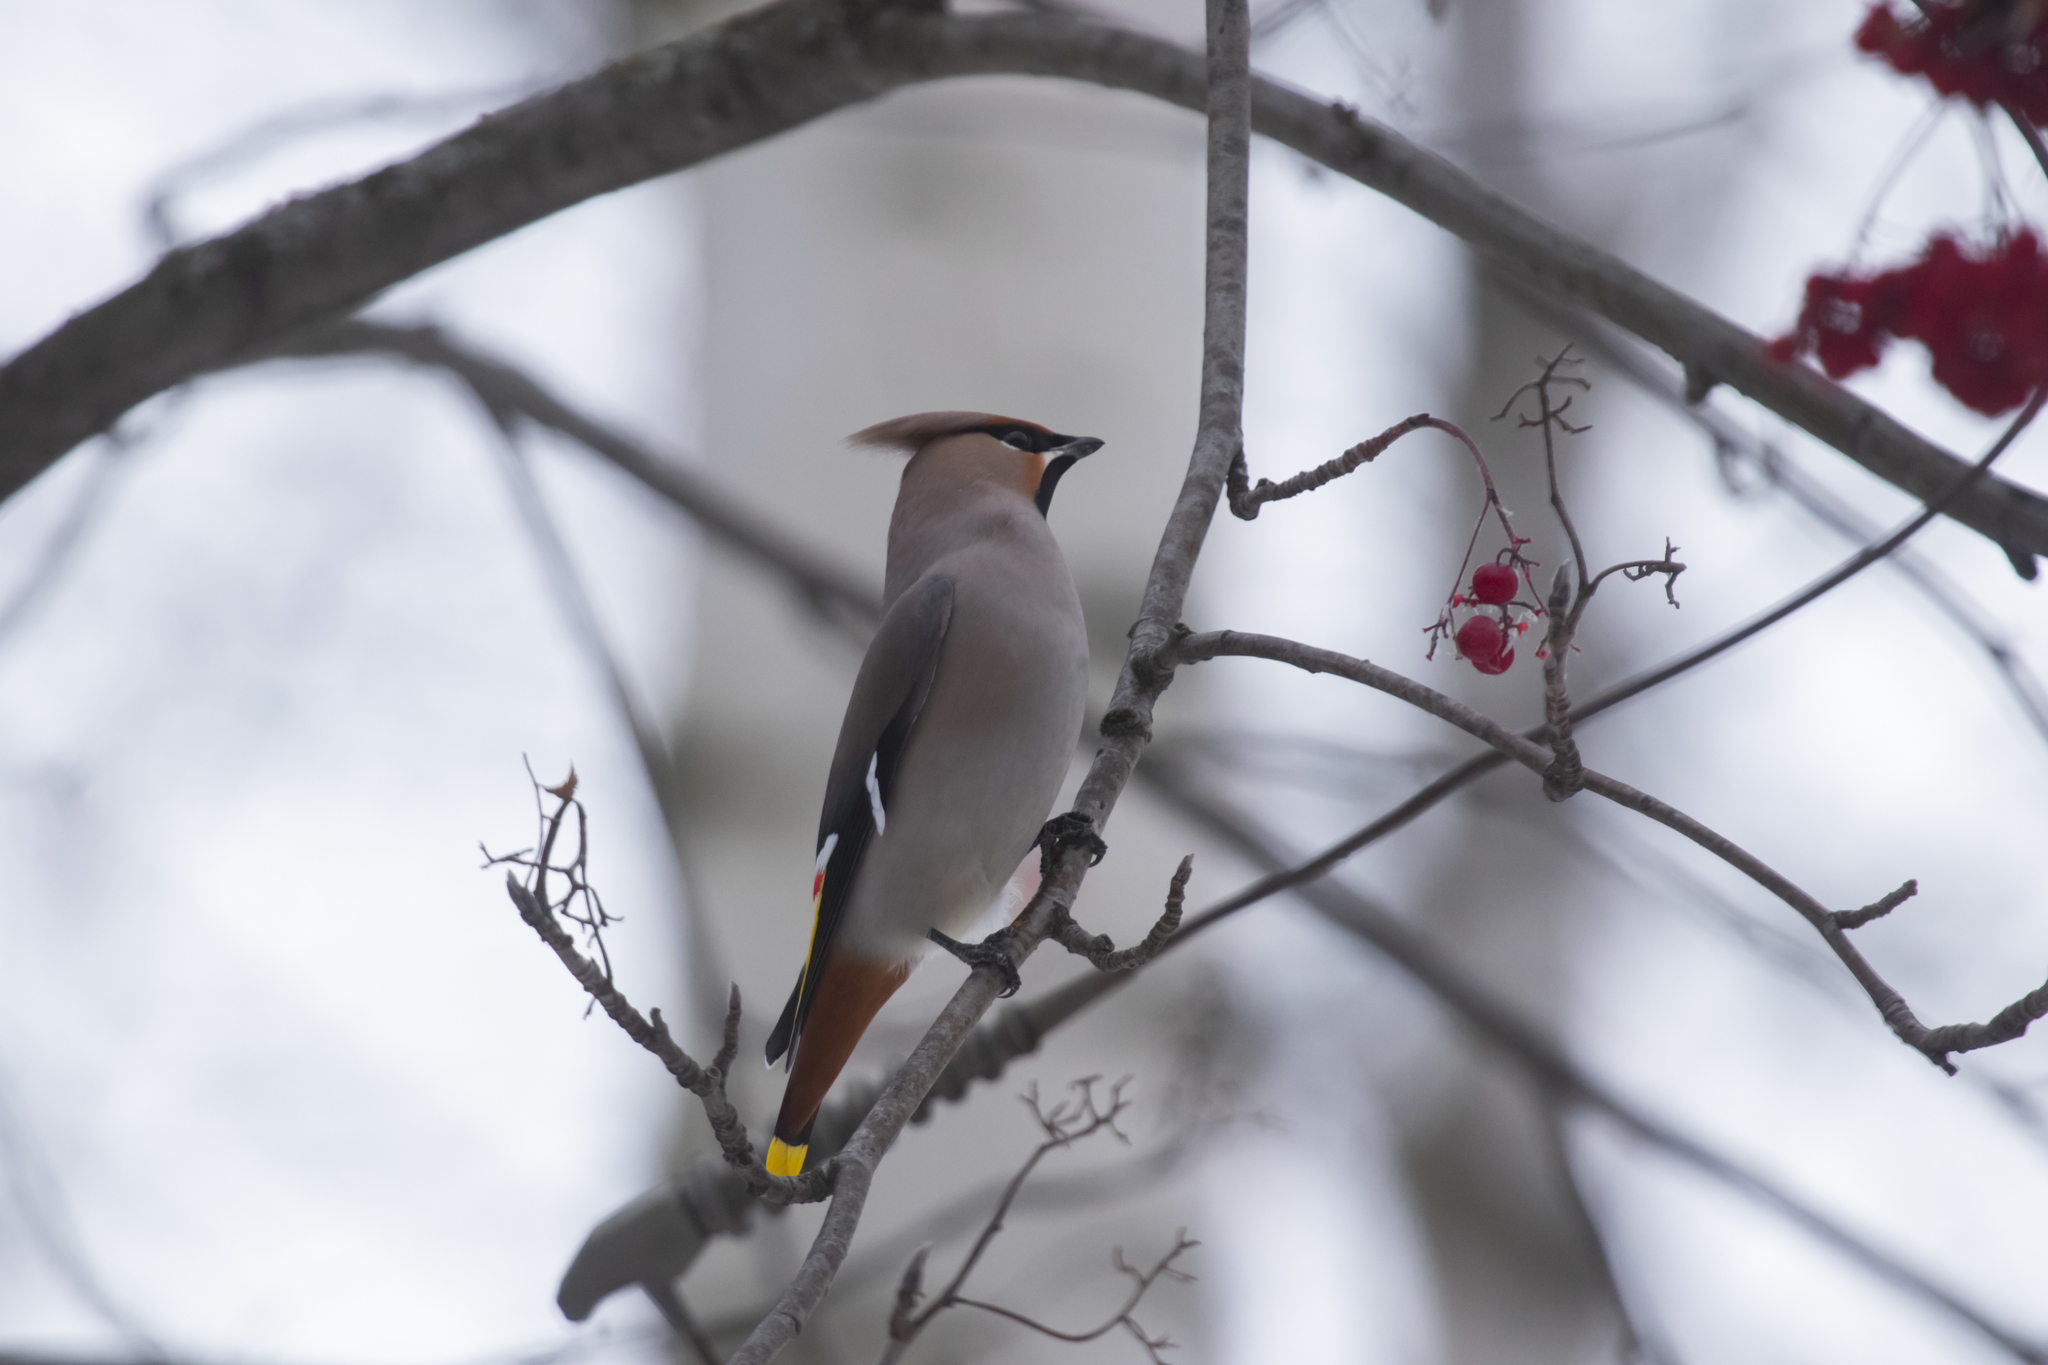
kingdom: Animalia
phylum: Chordata
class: Aves
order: Passeriformes
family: Bombycillidae
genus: Bombycilla
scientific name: Bombycilla garrulus
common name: Bohemian waxwing
